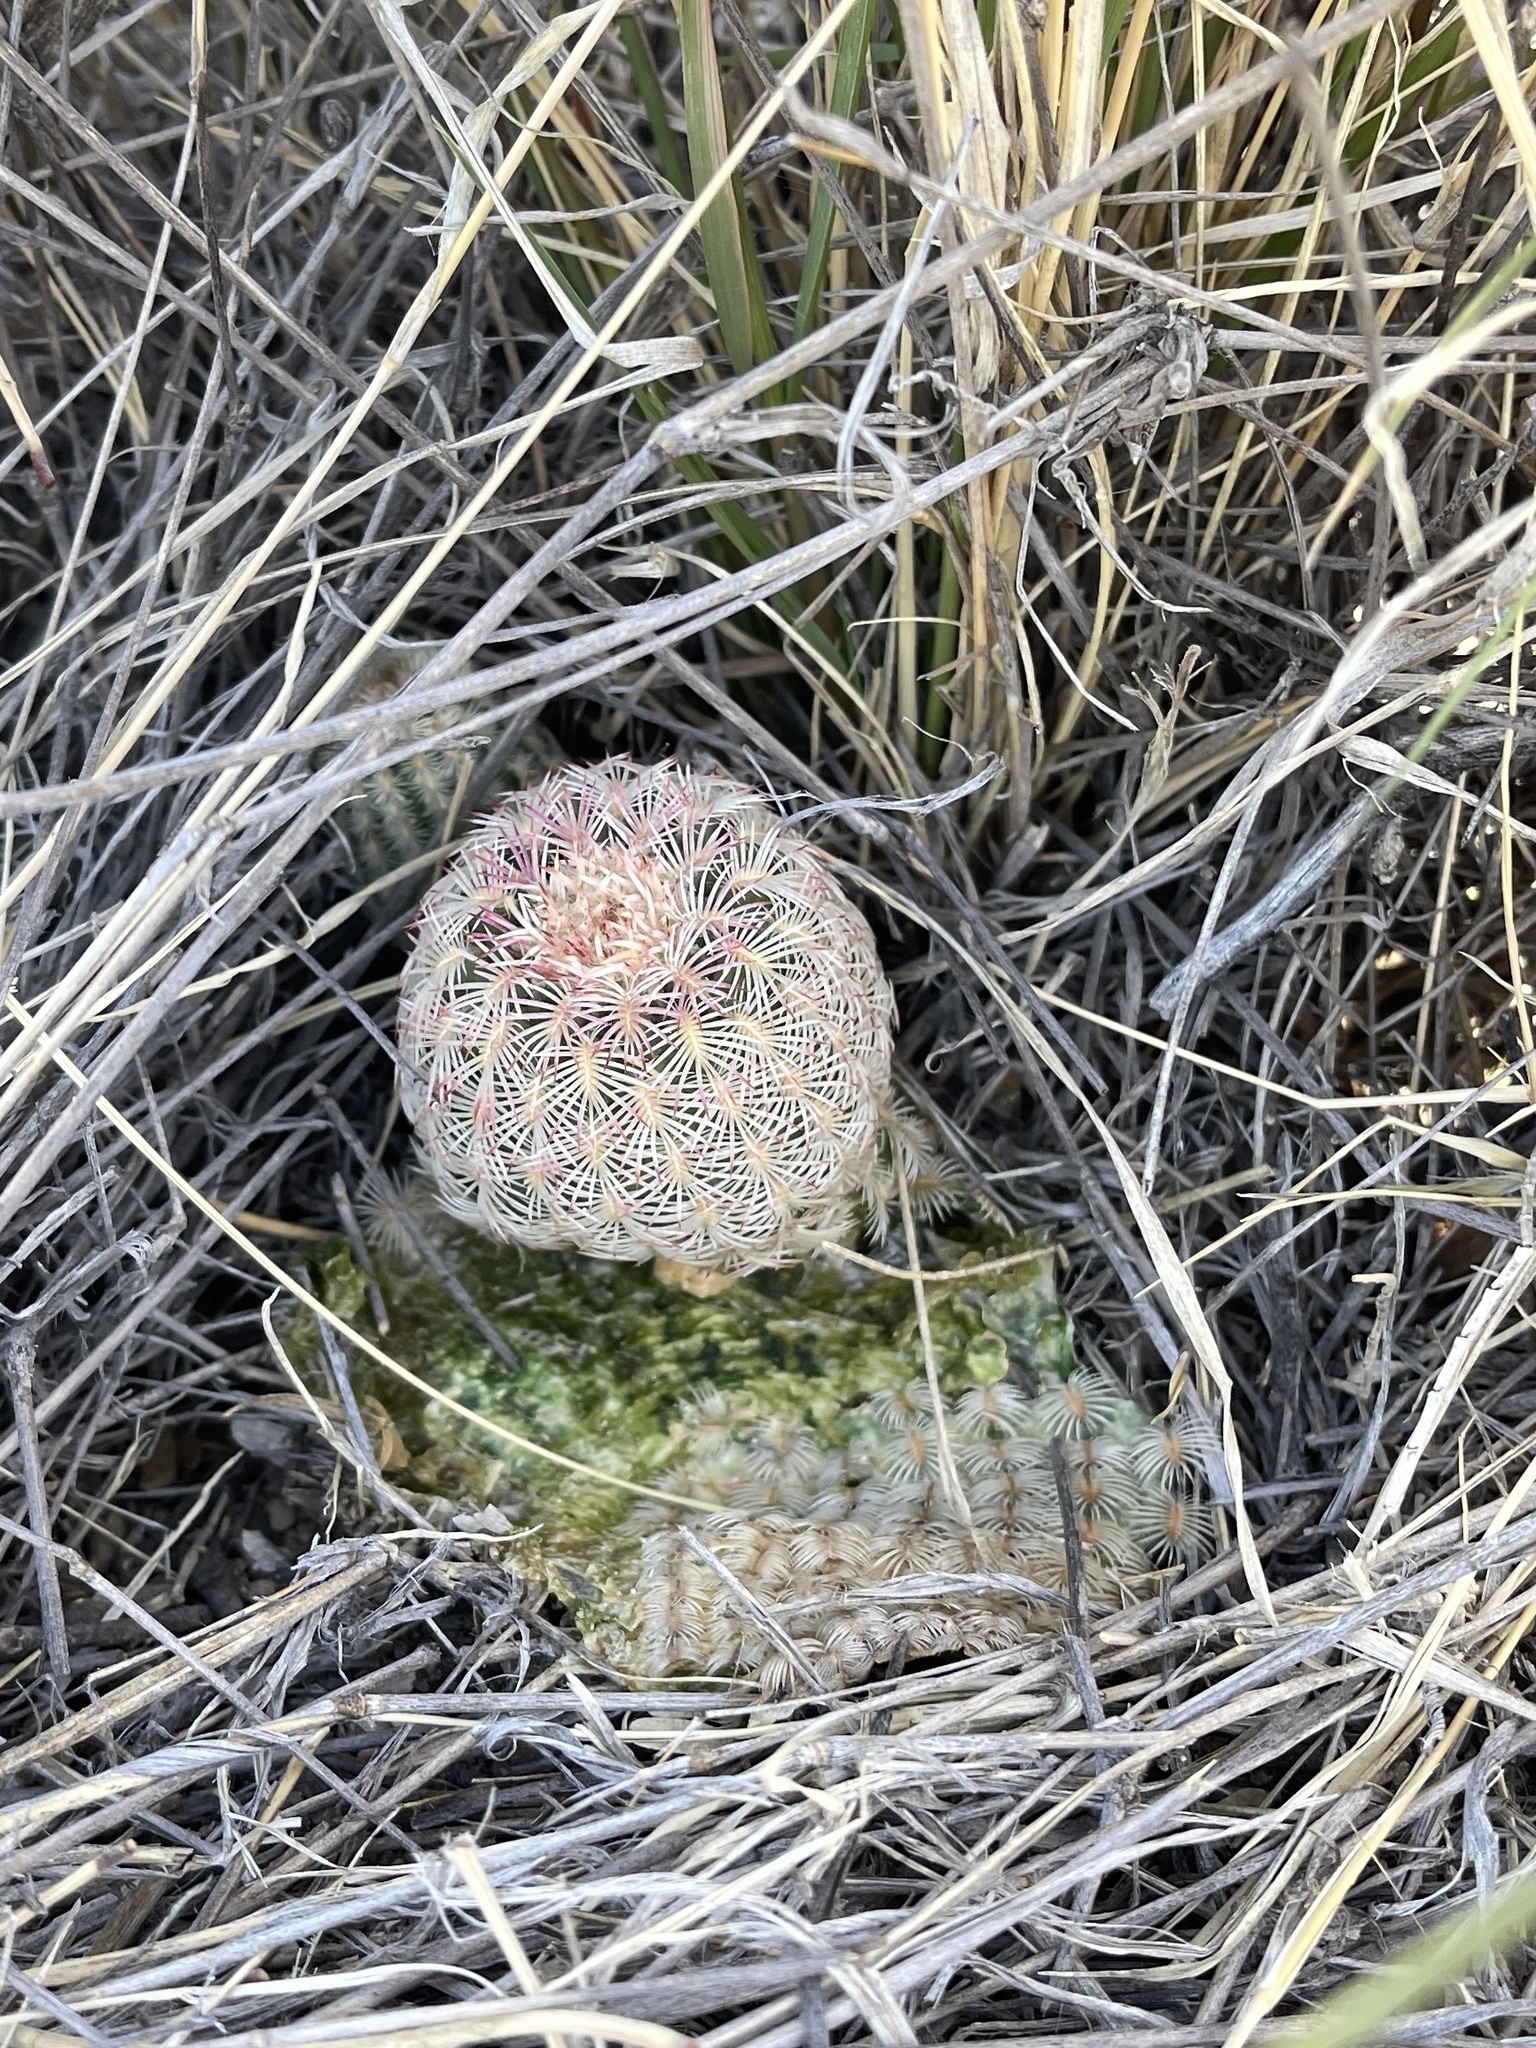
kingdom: Plantae
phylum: Tracheophyta
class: Magnoliopsida
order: Caryophyllales
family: Cactaceae
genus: Echinocereus
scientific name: Echinocereus rigidissimus
